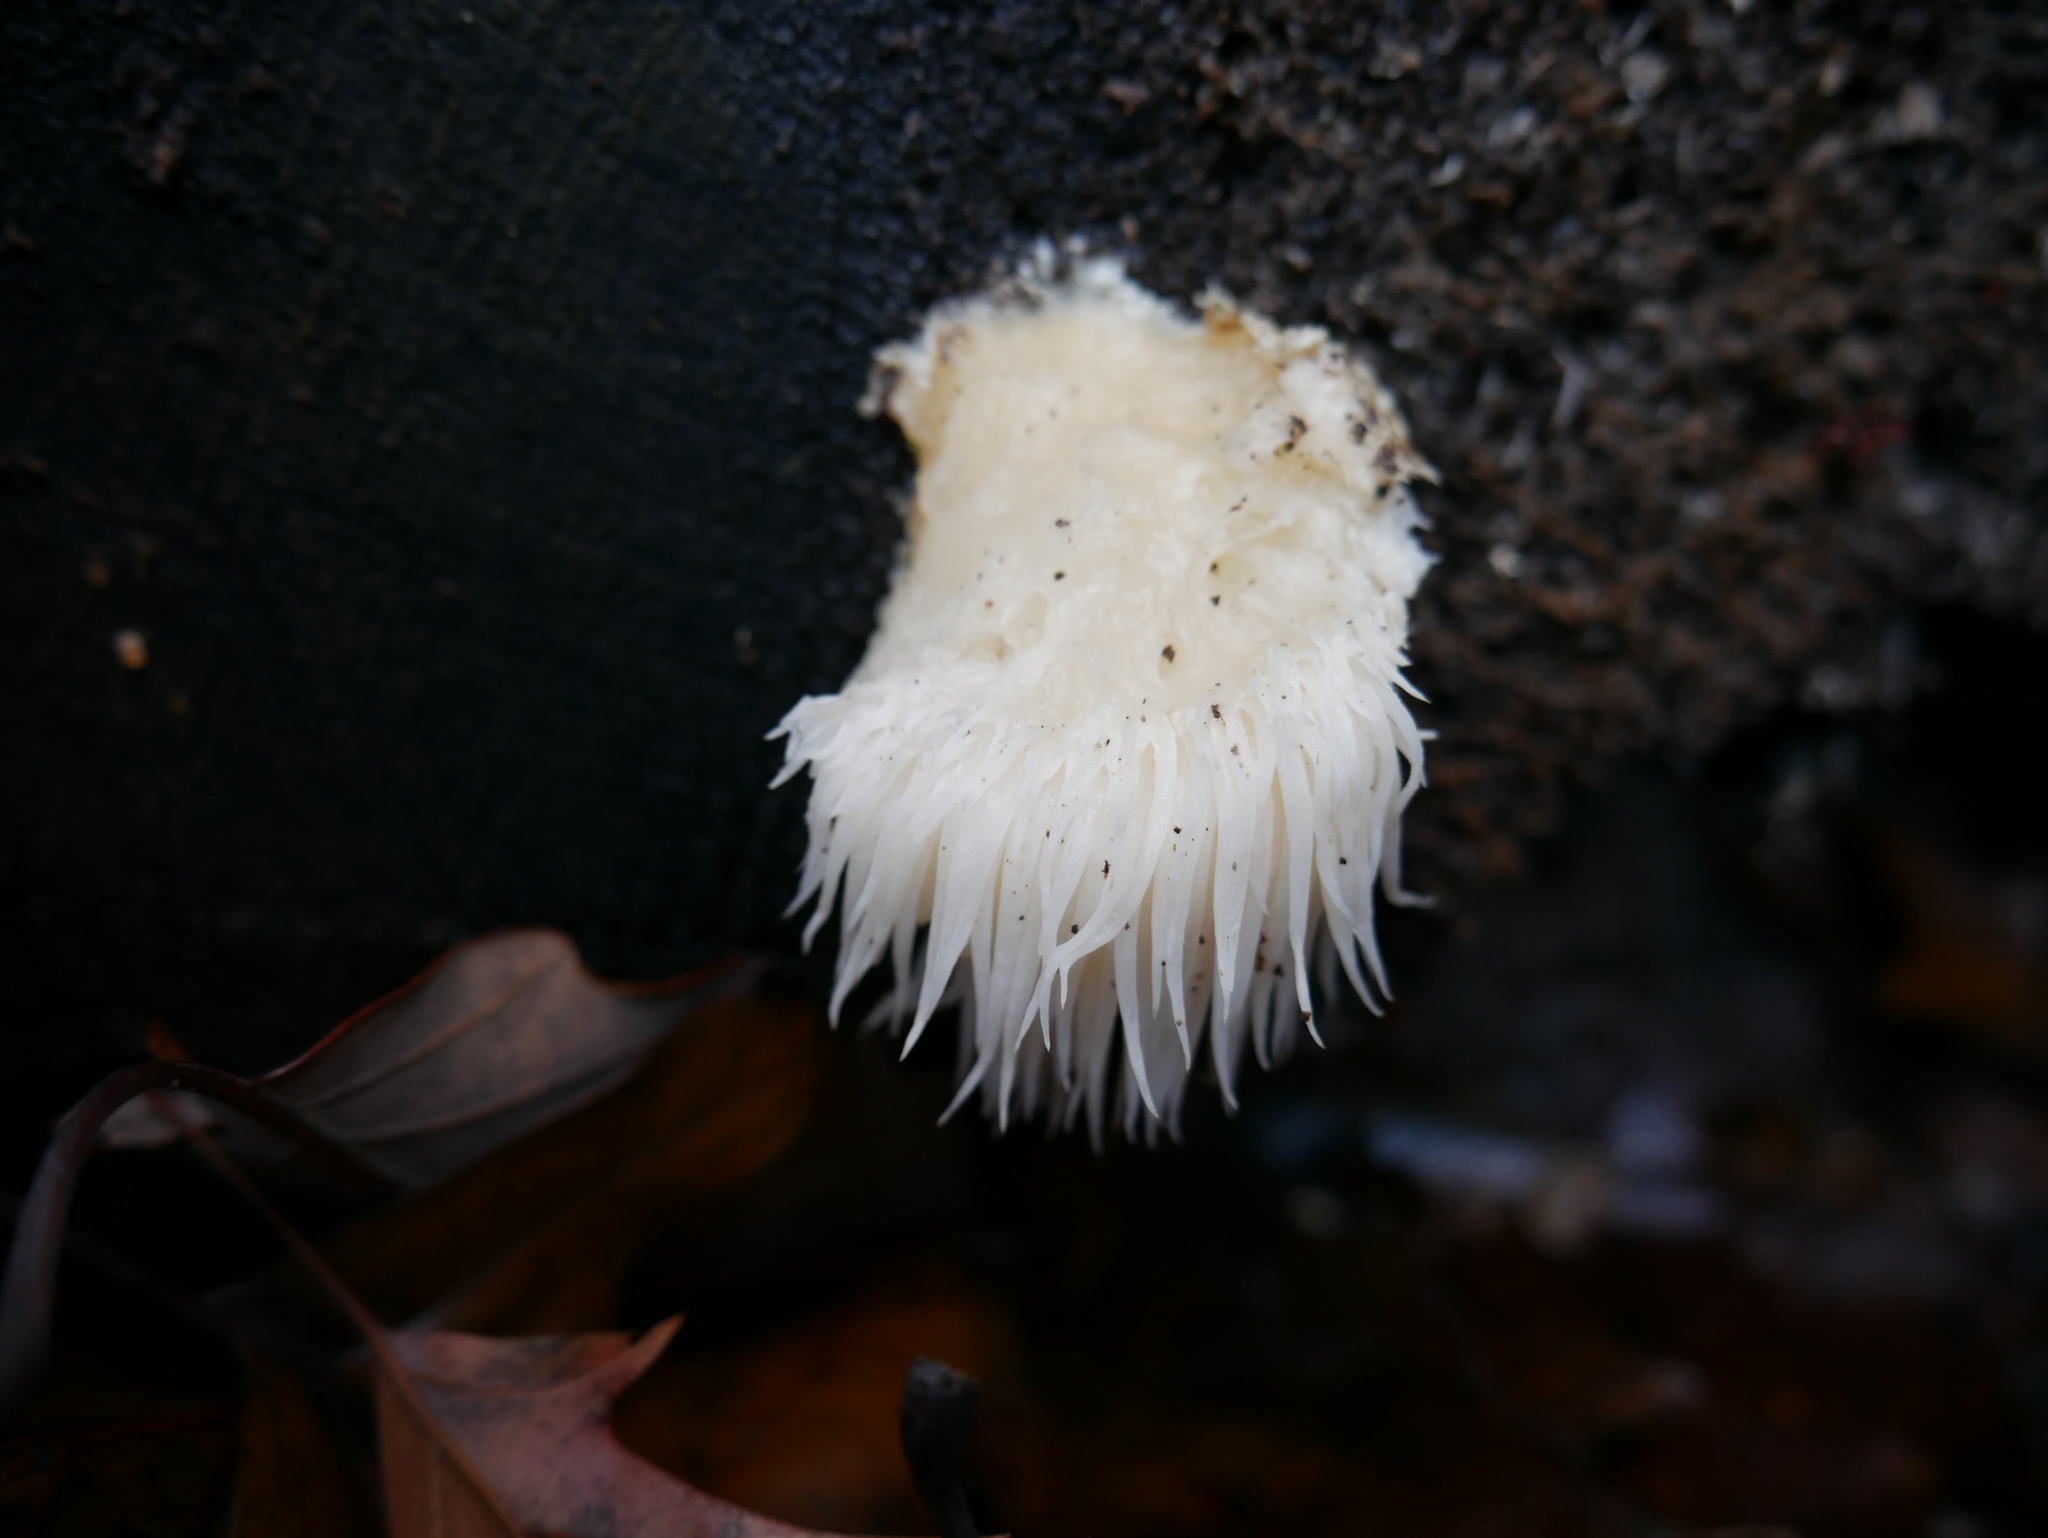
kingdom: Fungi
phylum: Basidiomycota
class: Agaricomycetes
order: Russulales
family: Hericiaceae
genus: Hericium
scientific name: Hericium erinaceus
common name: Bearded tooth
